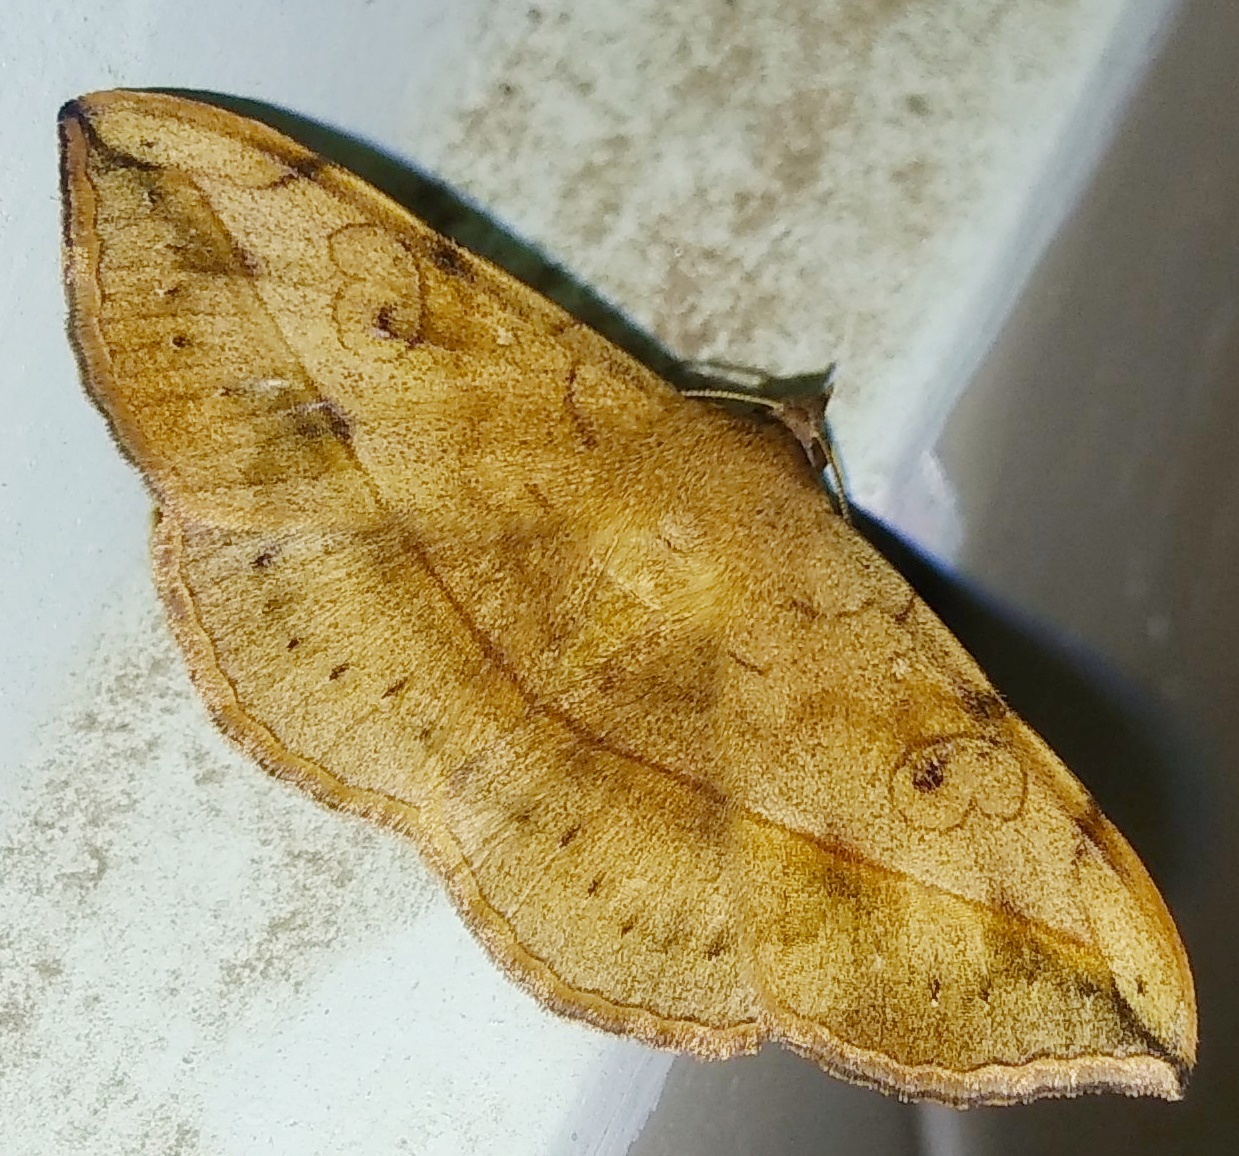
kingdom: Animalia
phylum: Arthropoda
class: Insecta
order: Lepidoptera
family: Erebidae
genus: Anticarsia
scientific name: Anticarsia irrorata
